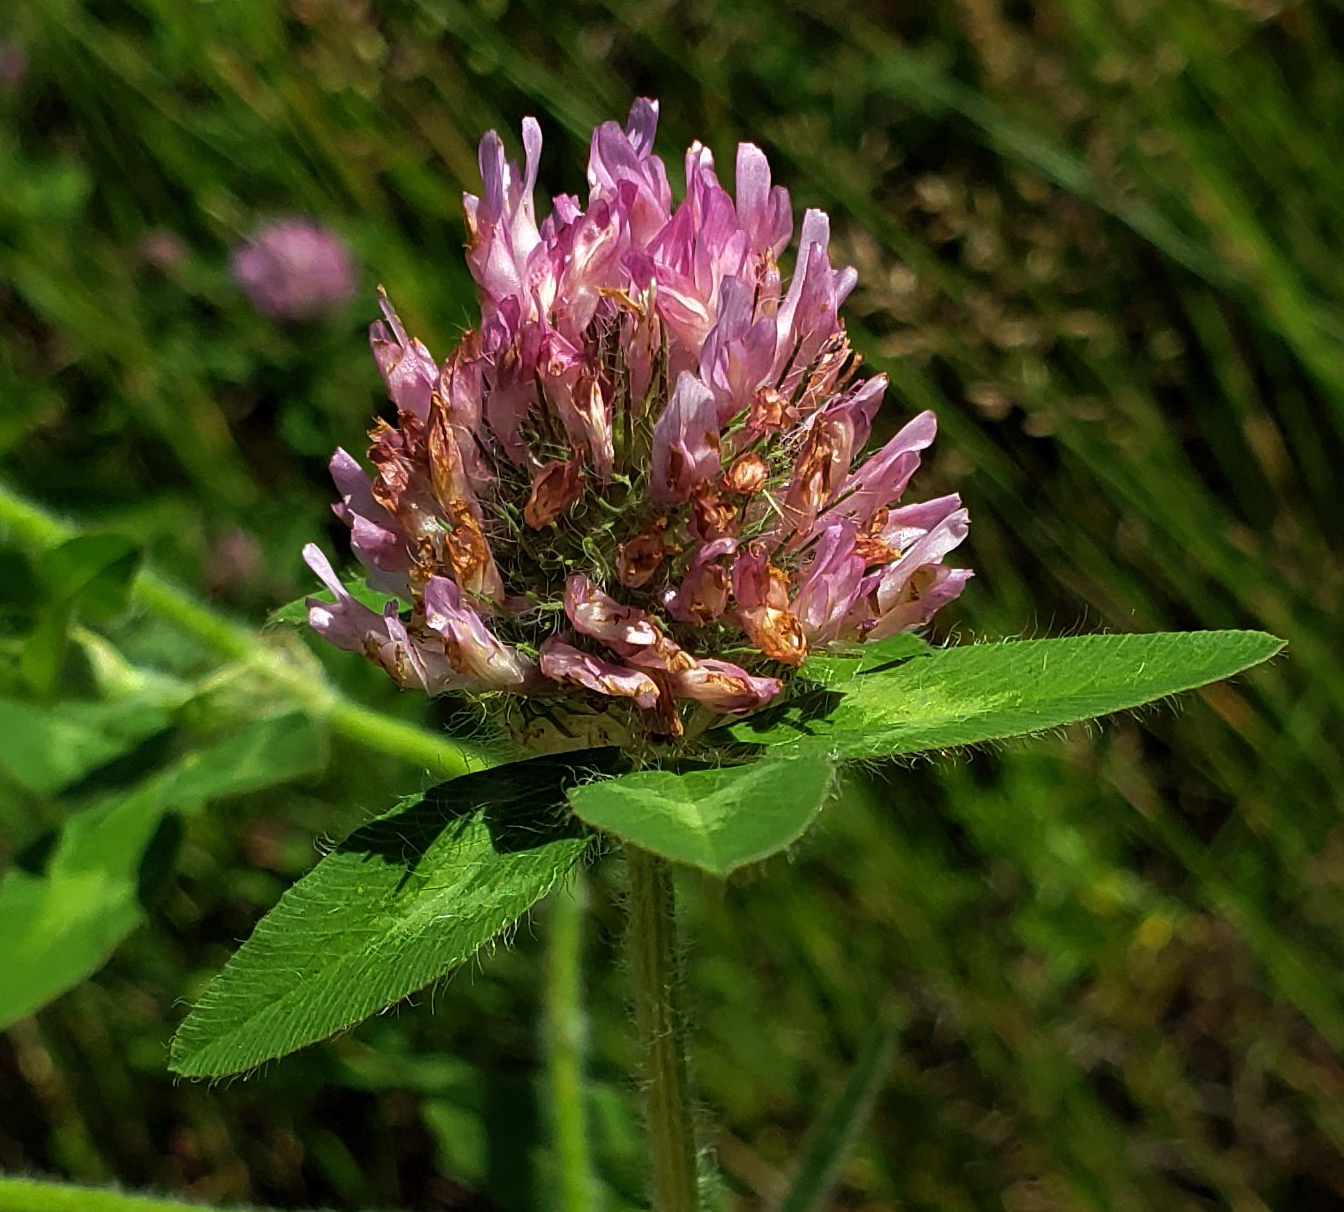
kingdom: Plantae
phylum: Tracheophyta
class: Magnoliopsida
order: Fabales
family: Fabaceae
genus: Trifolium
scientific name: Trifolium pratense
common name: Red clover
